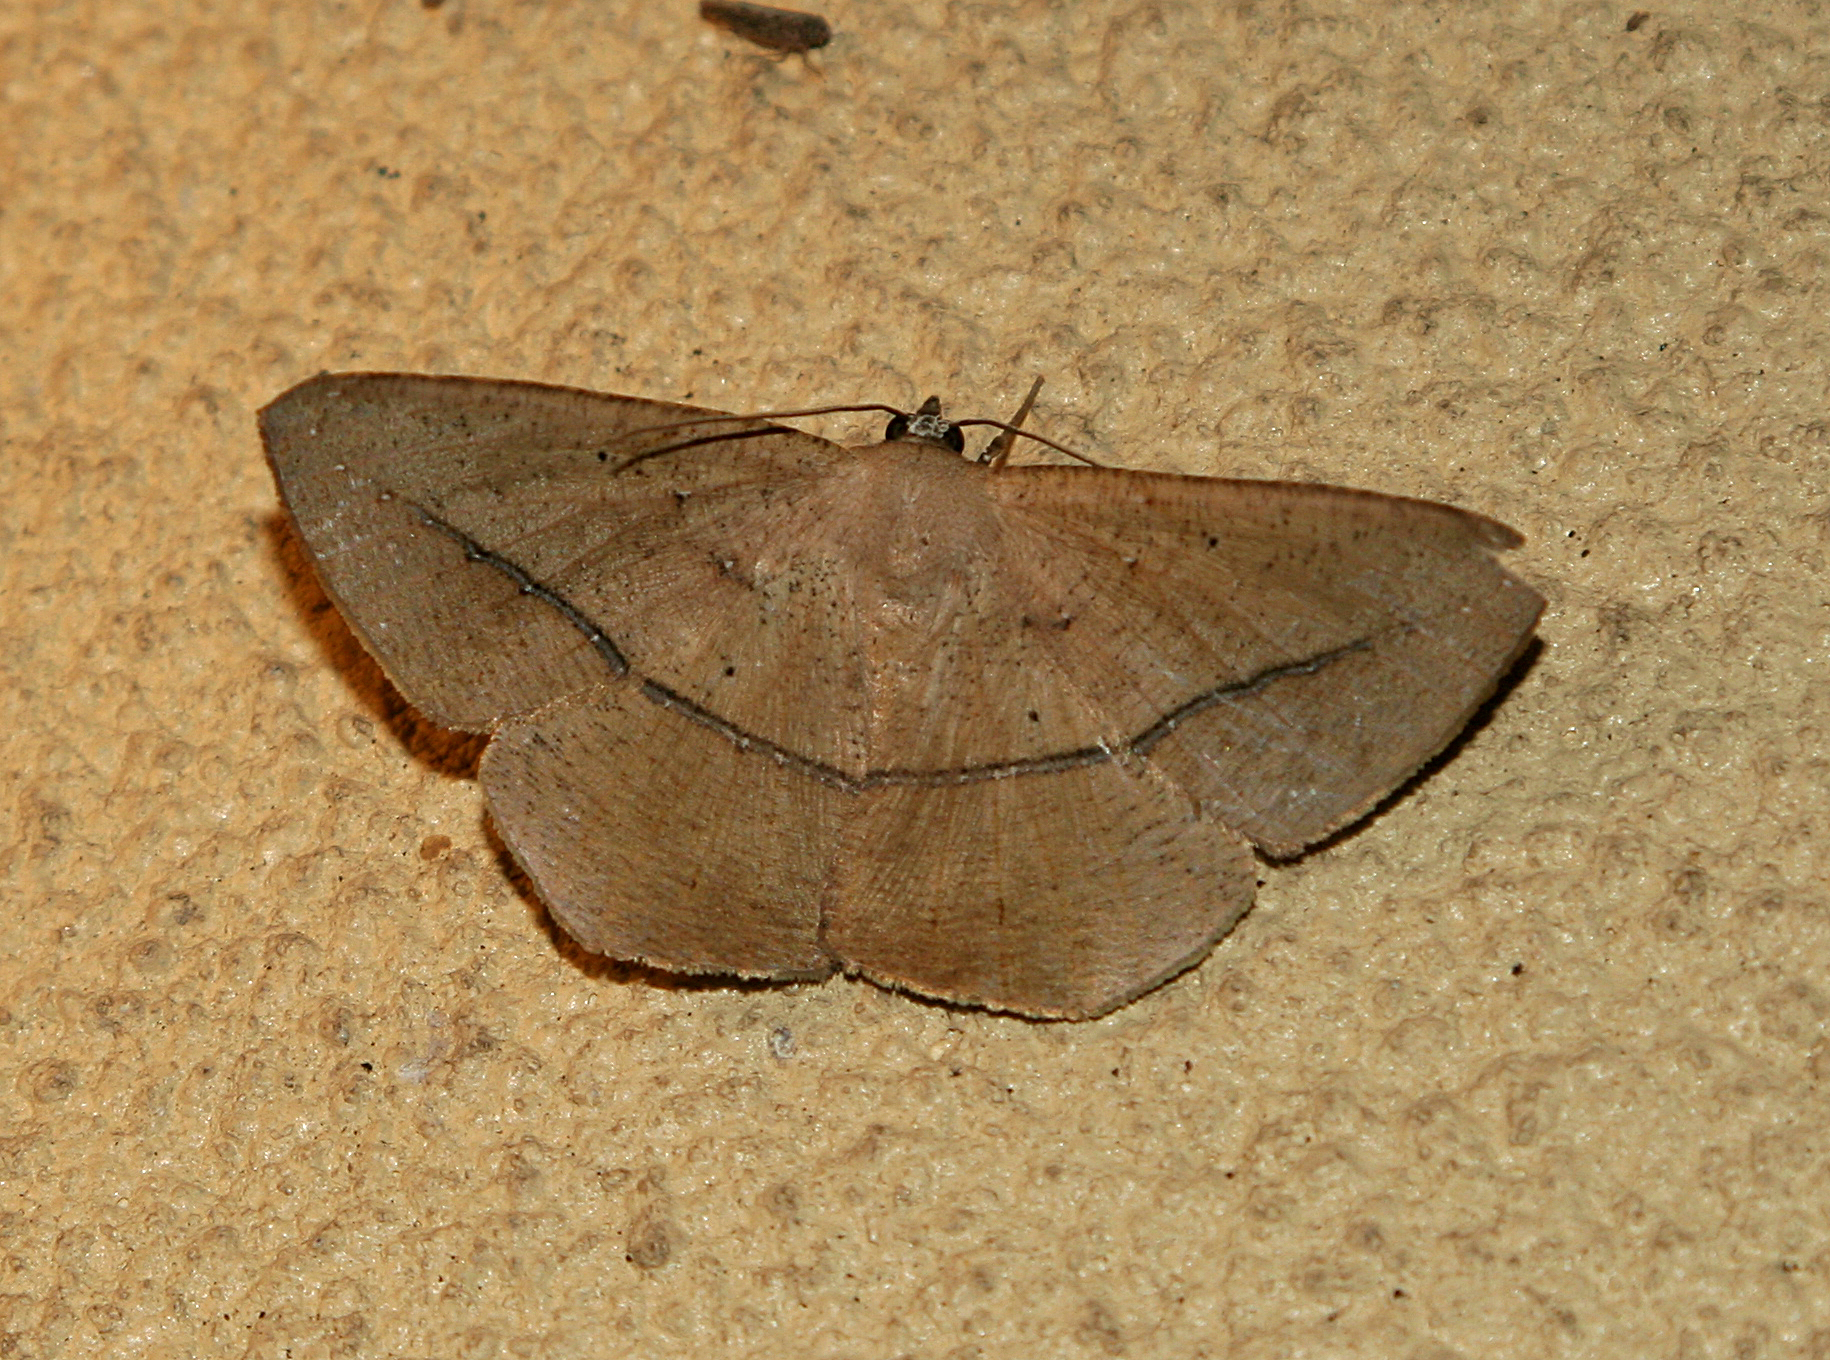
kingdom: Animalia
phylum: Arthropoda
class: Insecta
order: Lepidoptera
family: Geometridae
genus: Prochoerodes
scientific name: Prochoerodes olivata
